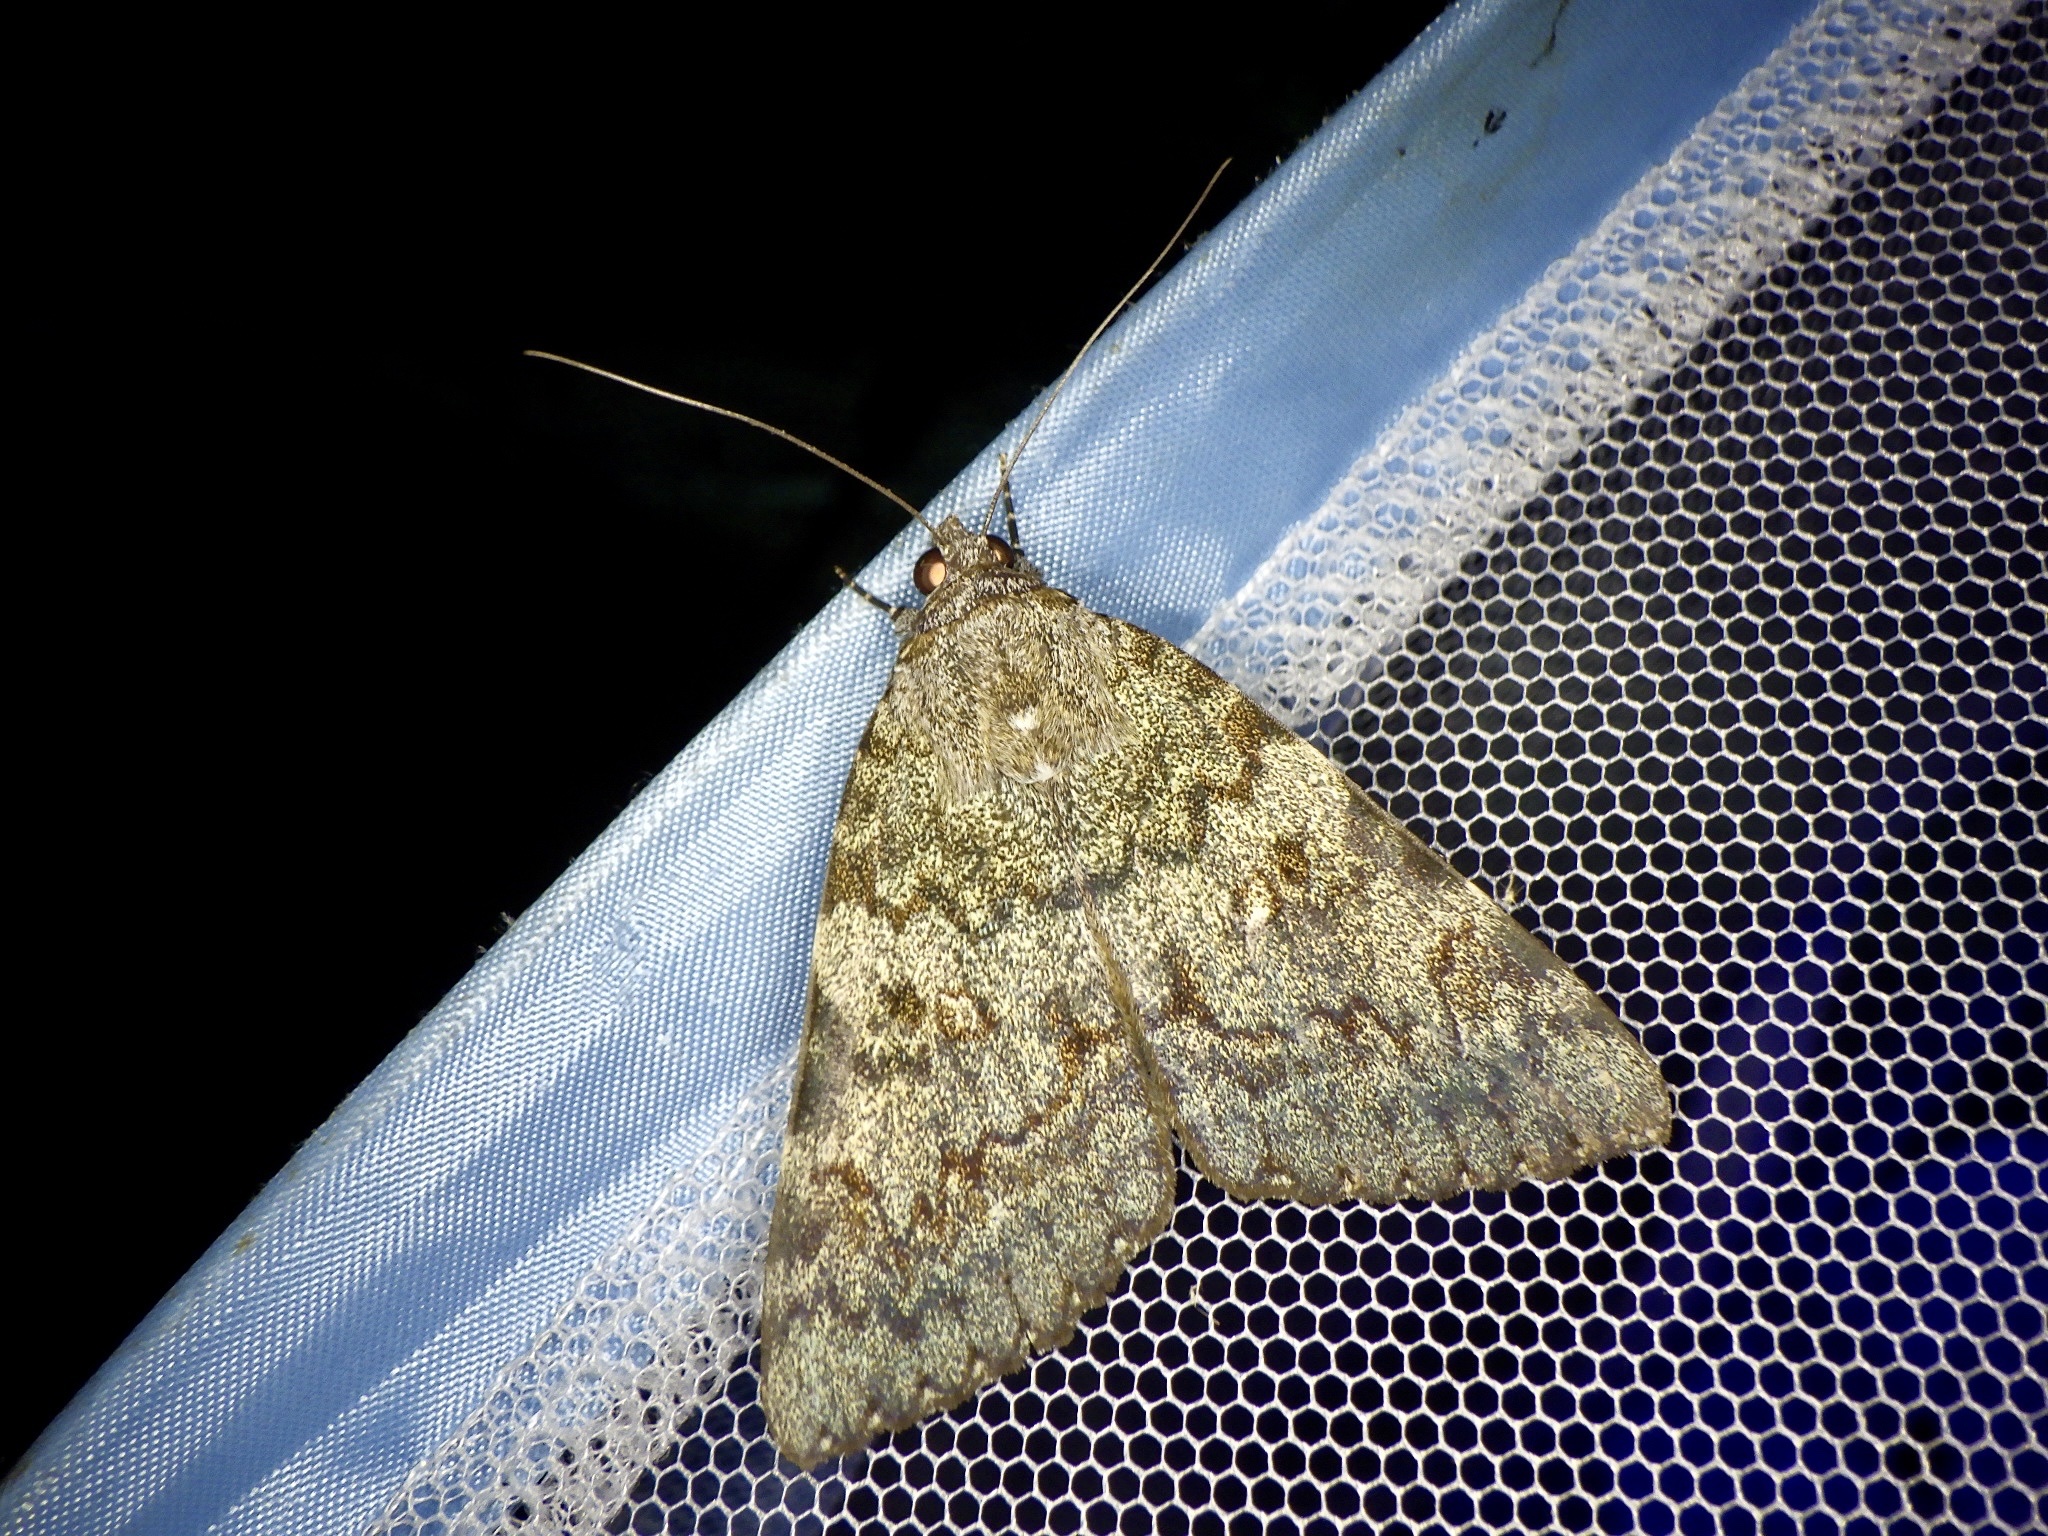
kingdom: Animalia
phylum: Arthropoda
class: Insecta
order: Lepidoptera
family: Erebidae
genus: Catocala
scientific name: Catocala kuangtungensis
